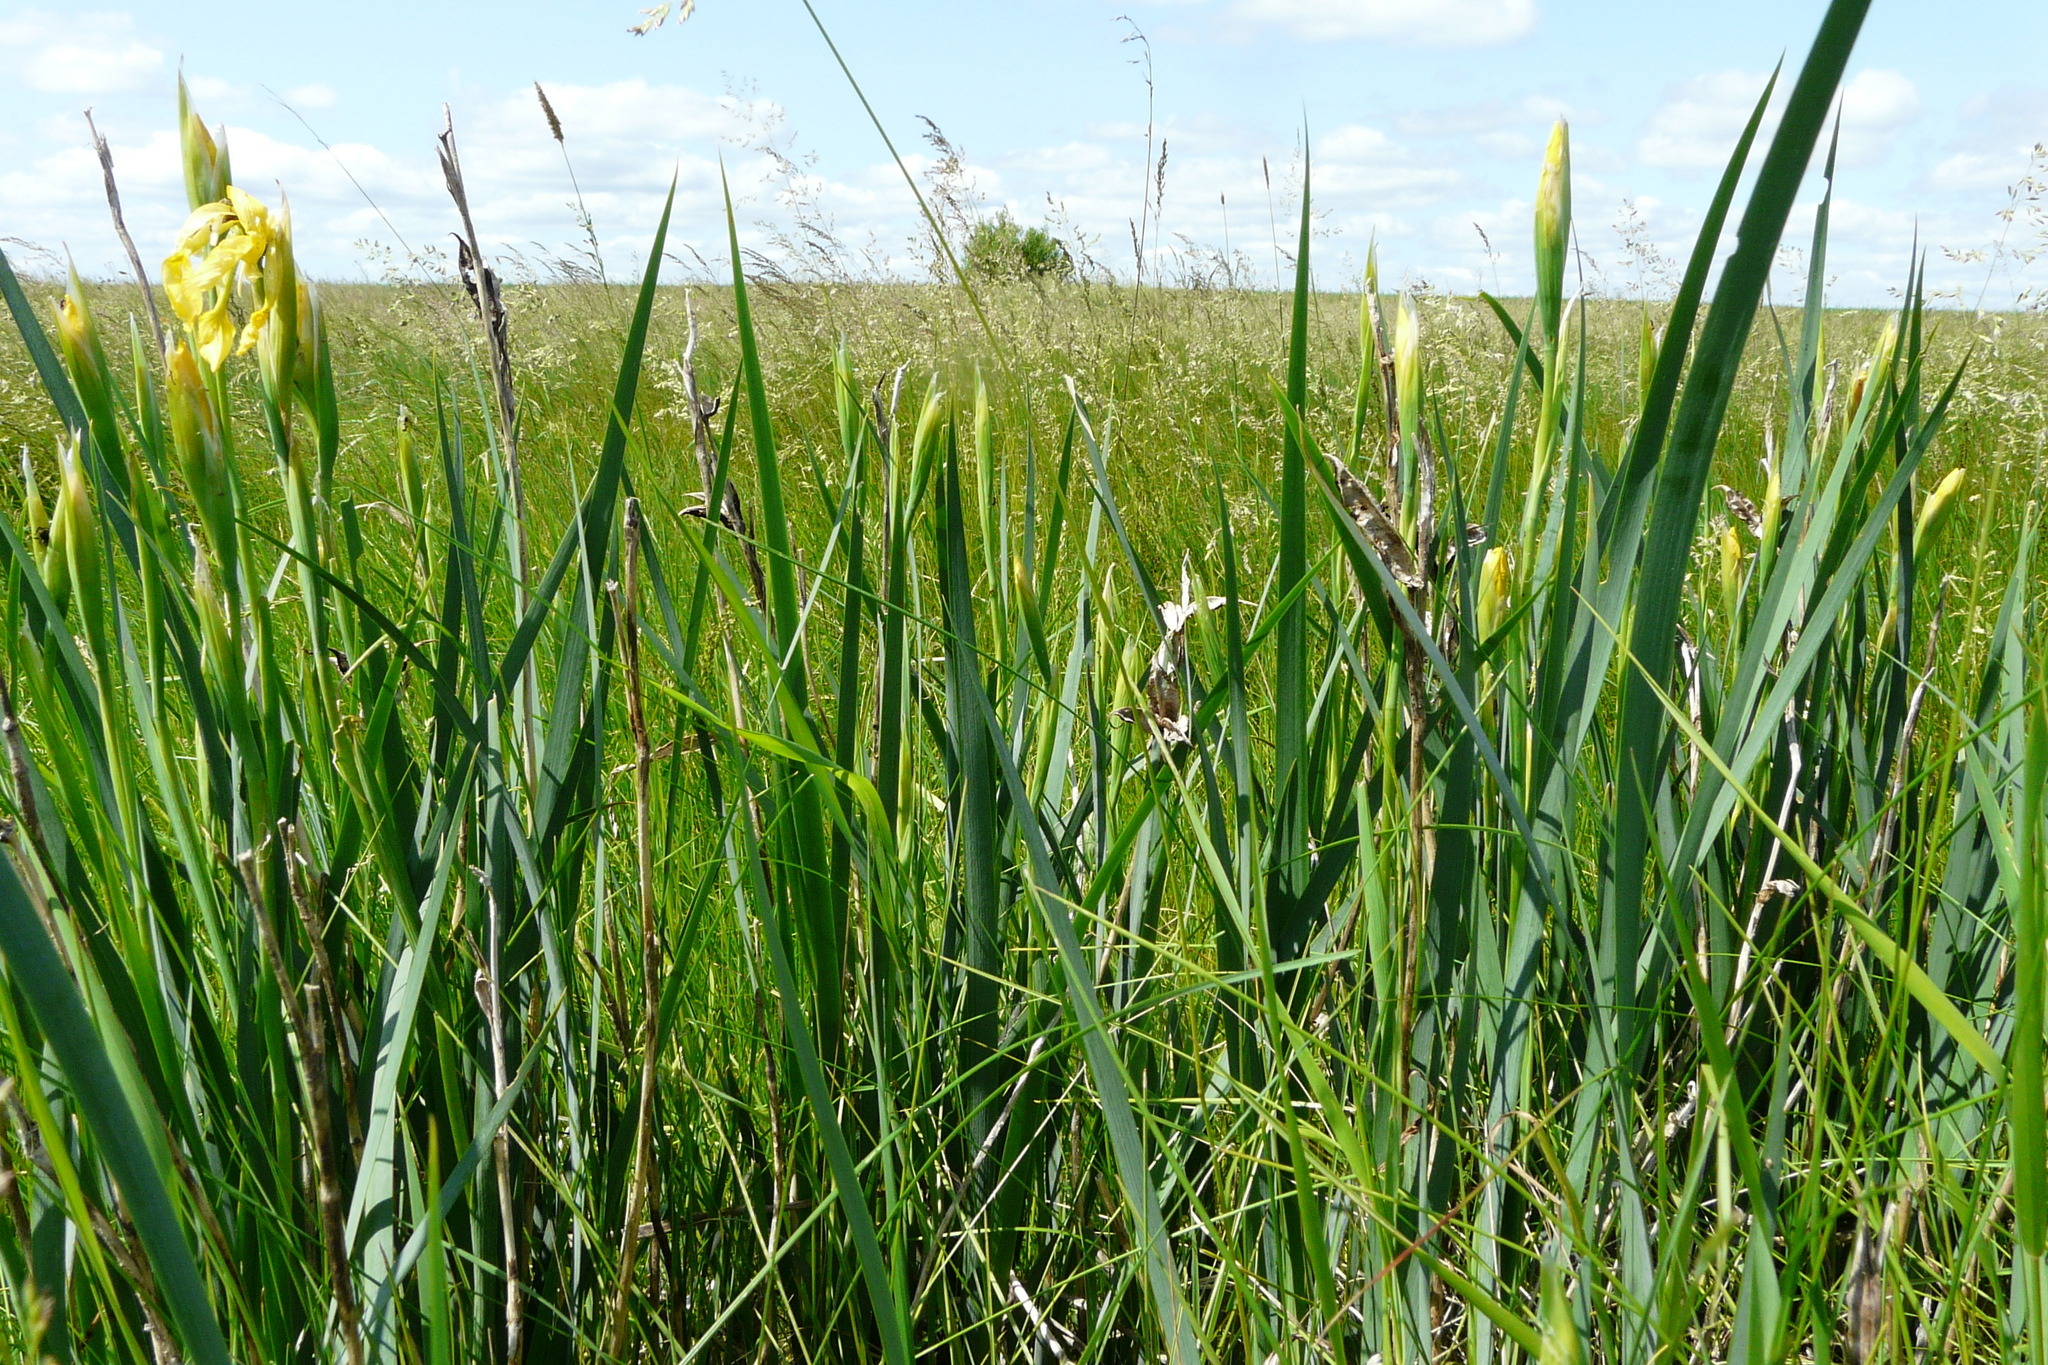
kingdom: Plantae
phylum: Tracheophyta
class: Liliopsida
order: Asparagales
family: Iridaceae
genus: Iris
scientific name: Iris halophila
